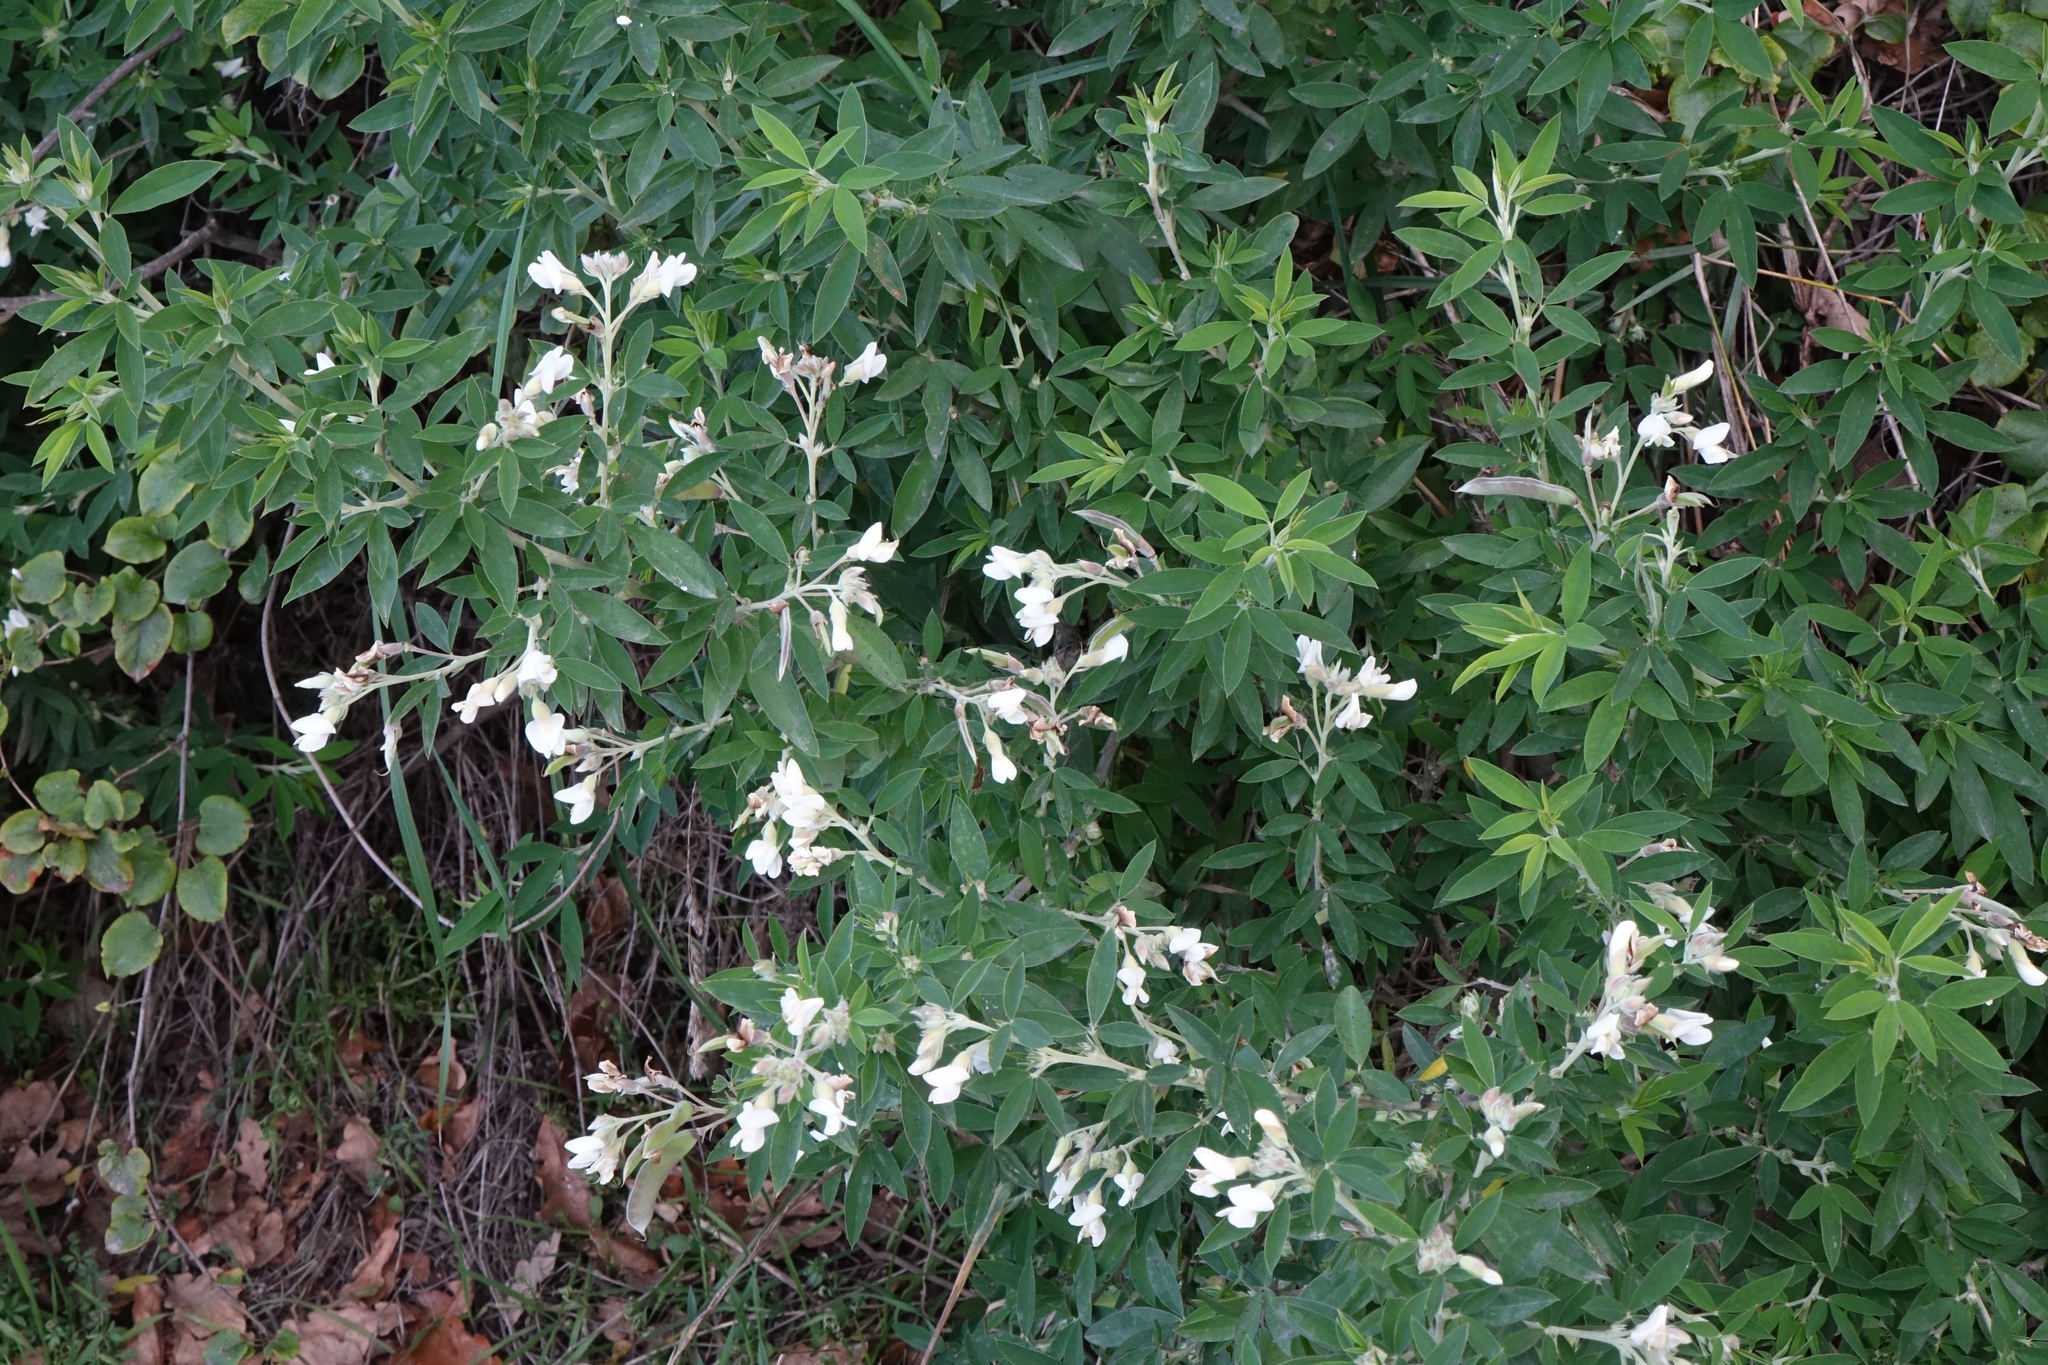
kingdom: Plantae
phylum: Tracheophyta
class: Magnoliopsida
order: Fabales
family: Fabaceae
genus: Chamaecytisus
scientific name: Chamaecytisus prolifer
